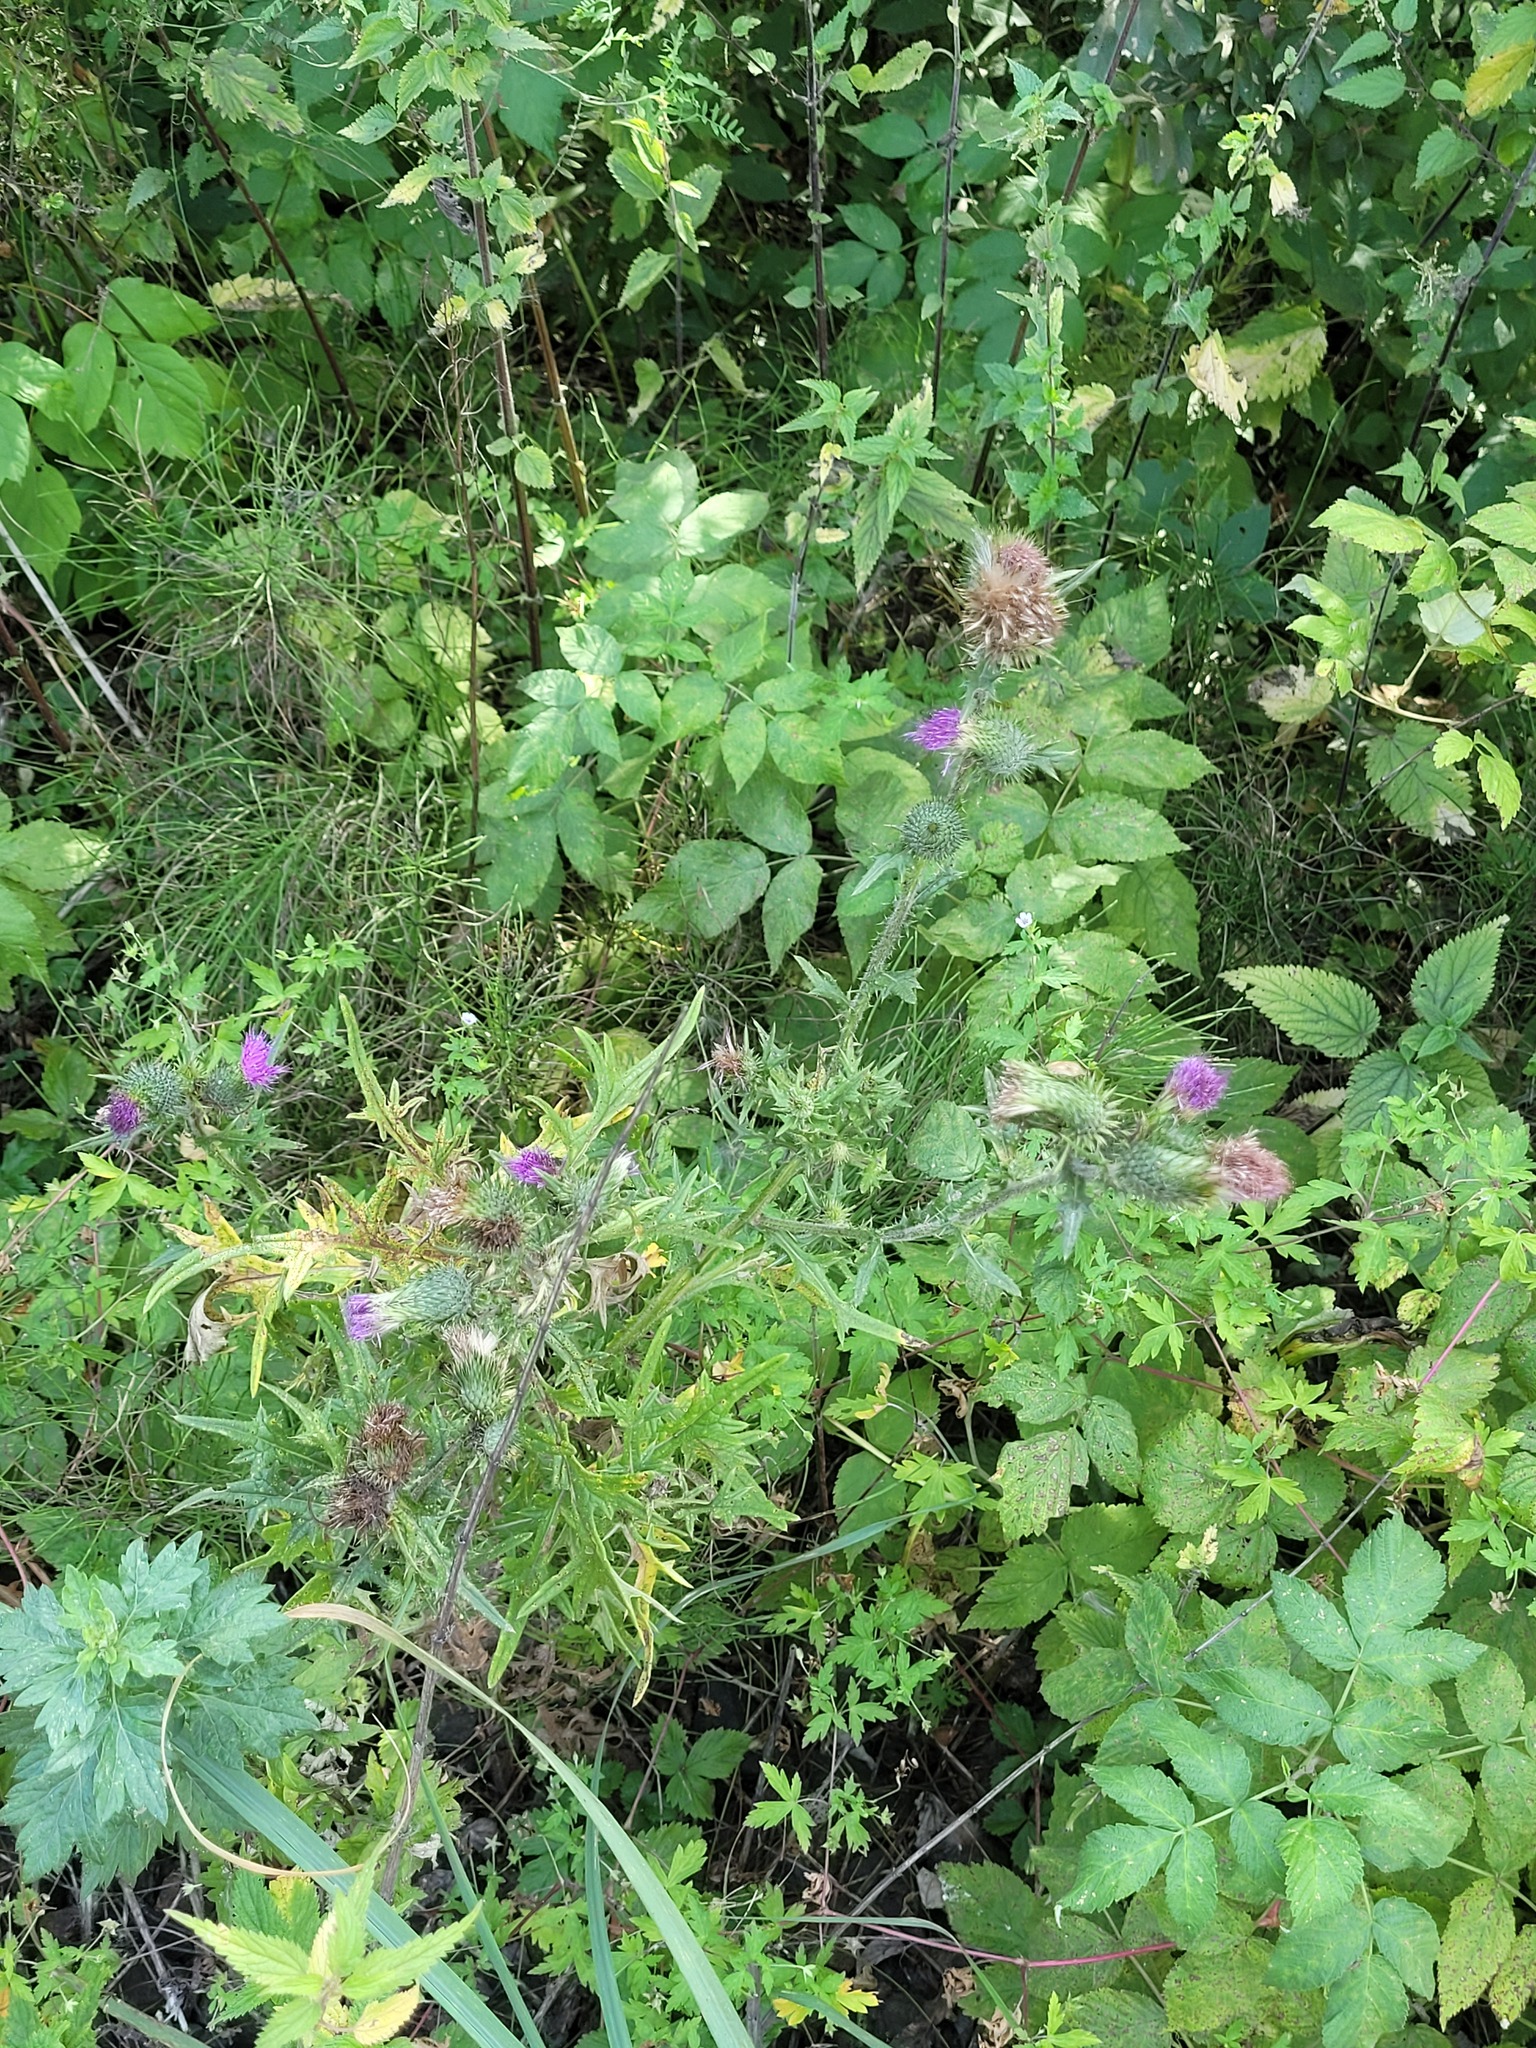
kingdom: Plantae
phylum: Tracheophyta
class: Magnoliopsida
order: Asterales
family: Asteraceae
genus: Cirsium
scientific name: Cirsium vulgare
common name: Bull thistle
